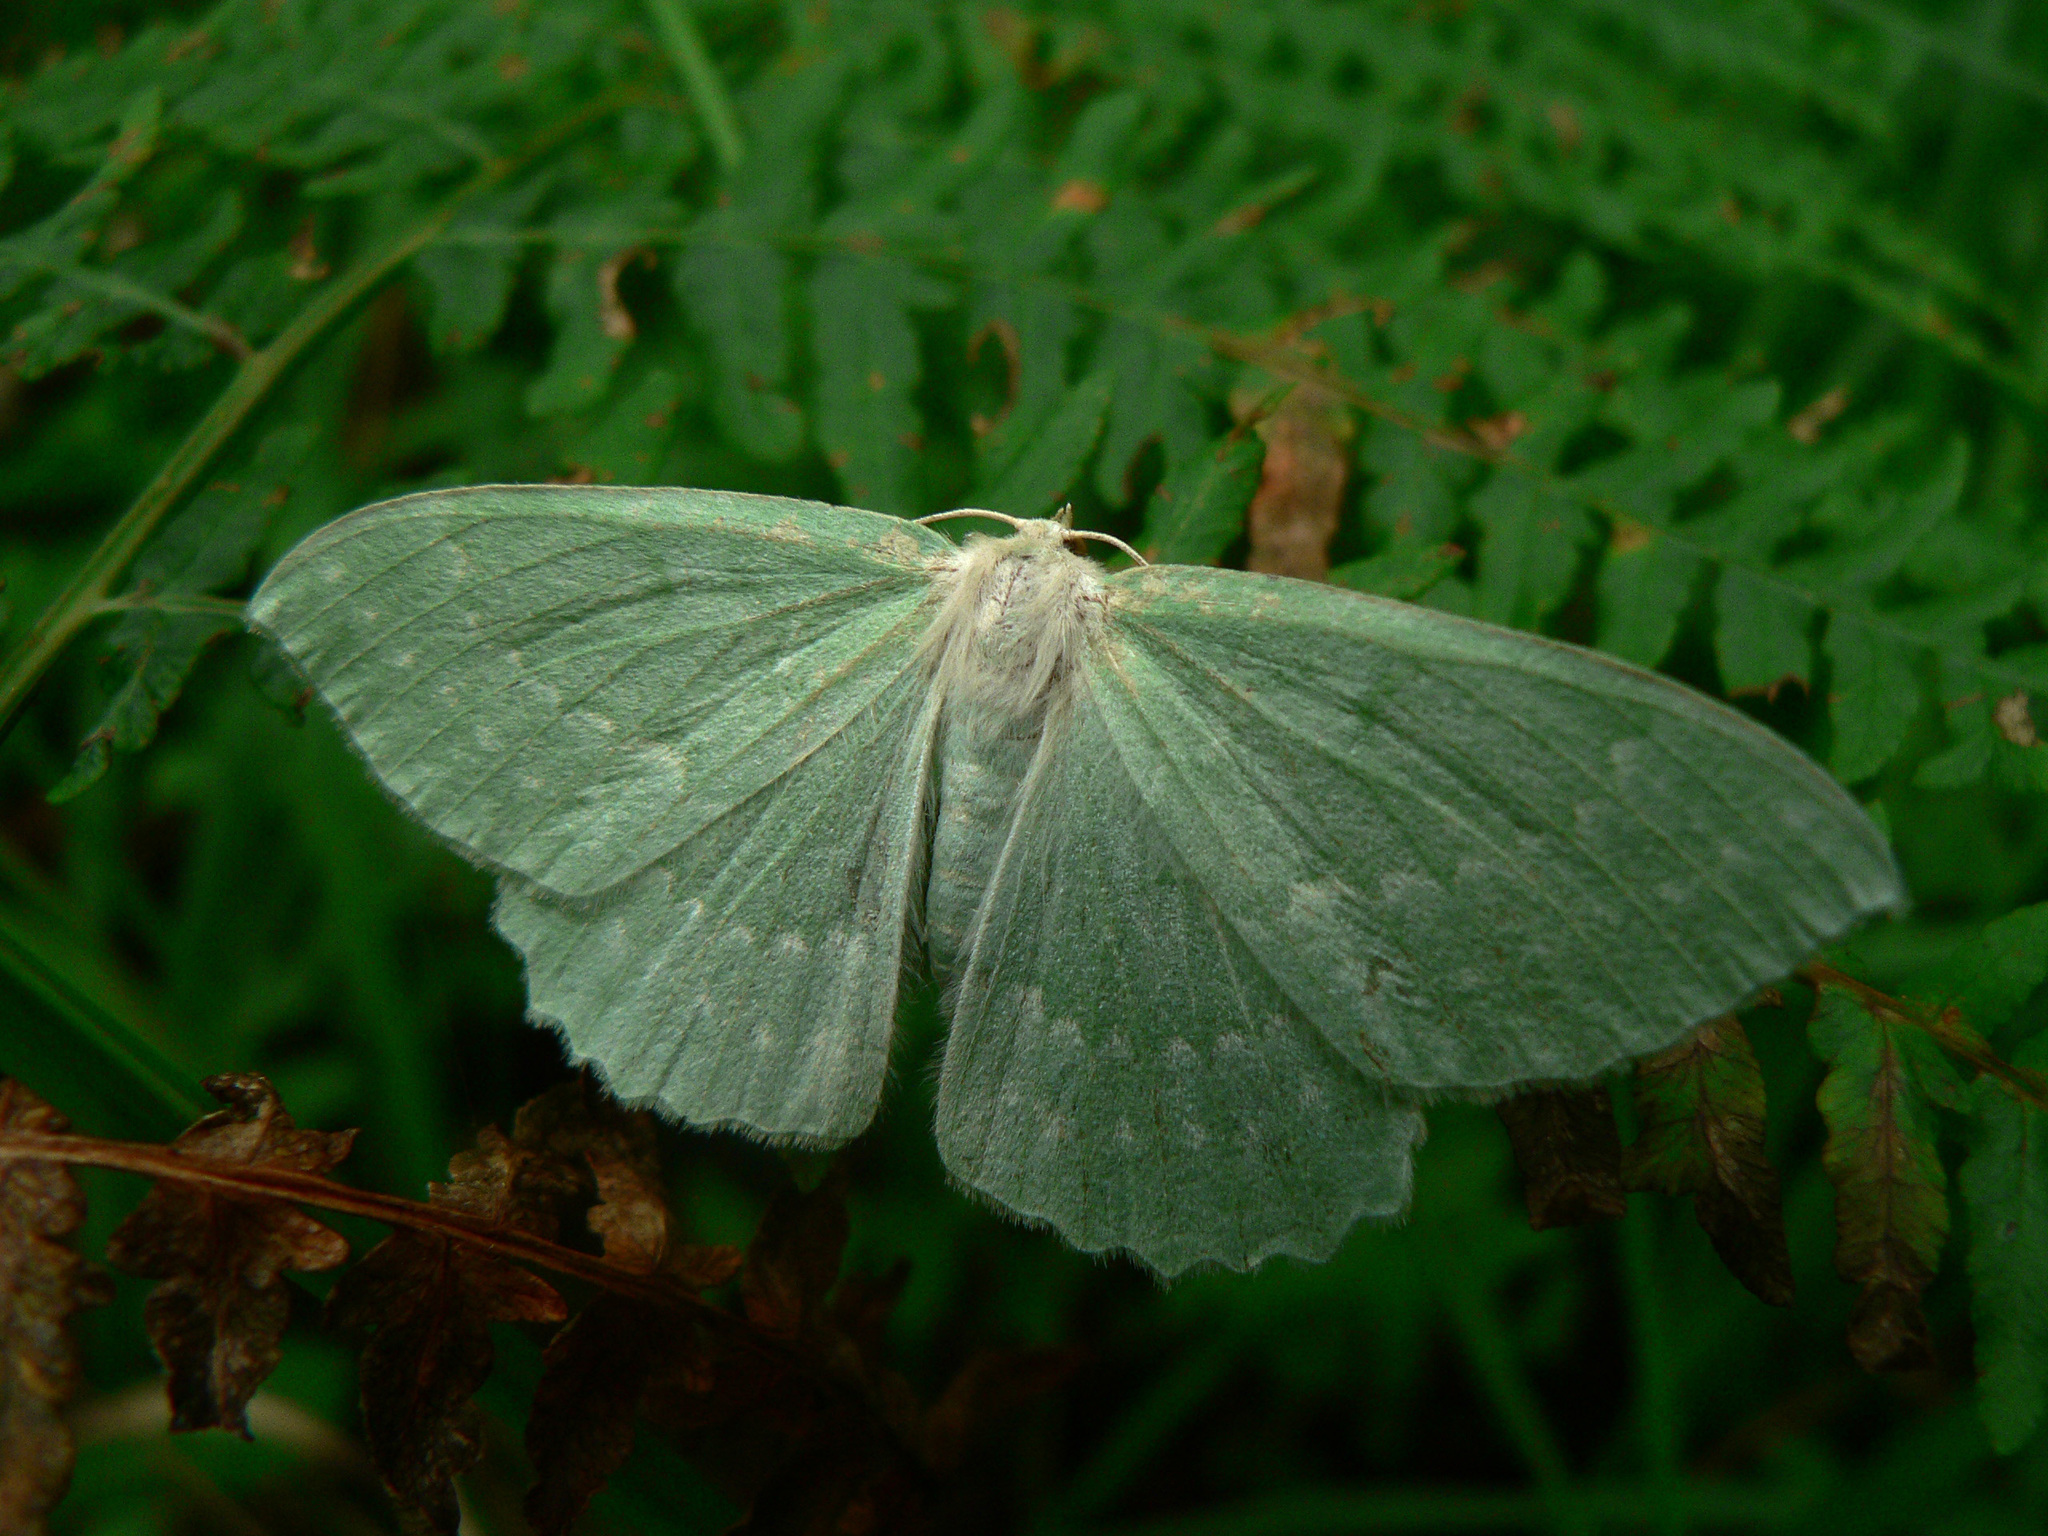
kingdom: Animalia
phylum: Arthropoda
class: Insecta
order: Lepidoptera
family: Geometridae
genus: Geometra
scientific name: Geometra papilionaria
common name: Large emerald
